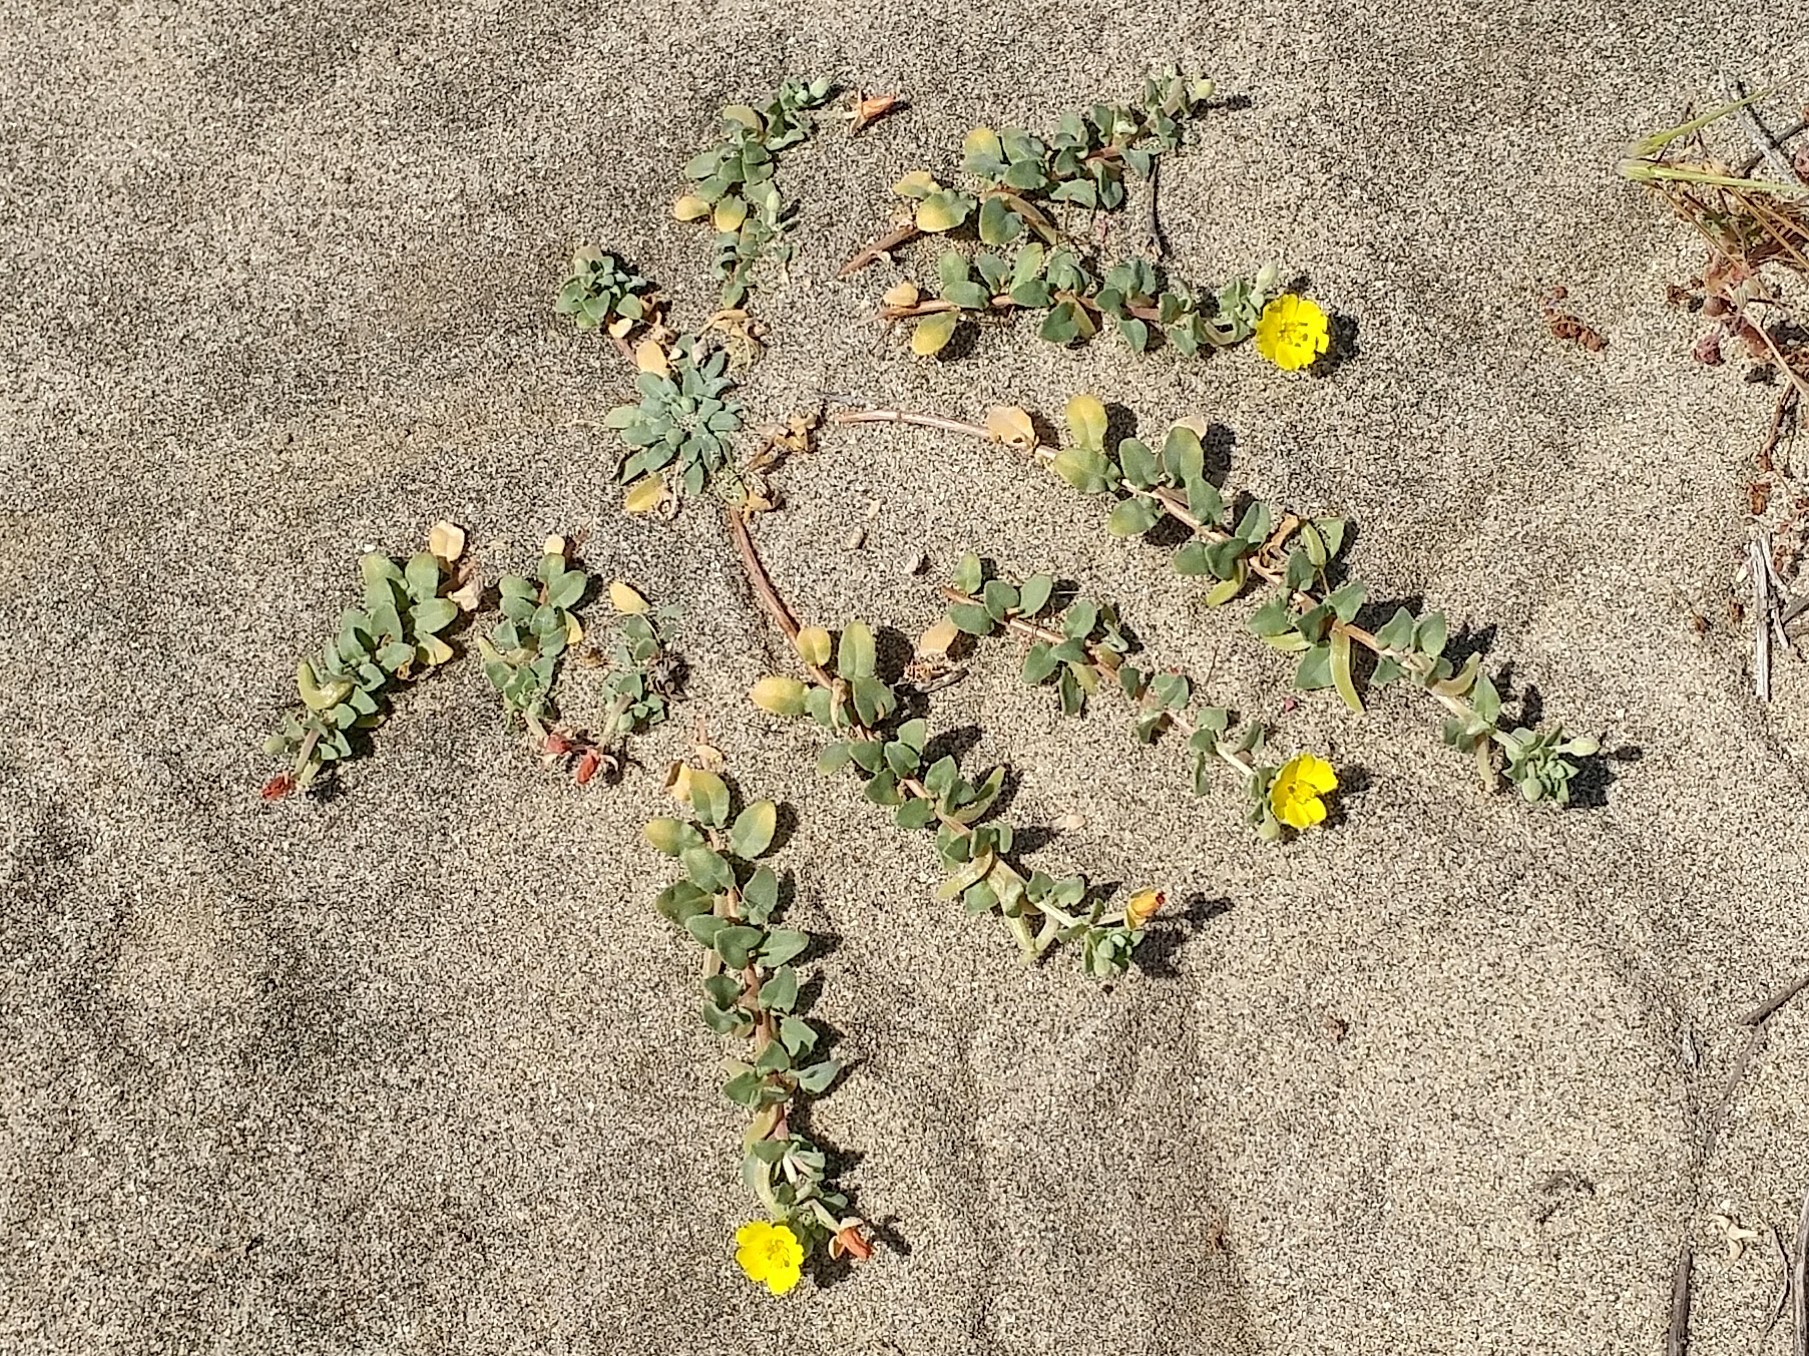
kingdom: Plantae
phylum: Tracheophyta
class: Magnoliopsida
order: Myrtales
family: Onagraceae
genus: Camissoniopsis
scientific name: Camissoniopsis cheiranthifolia
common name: Beach suncup
